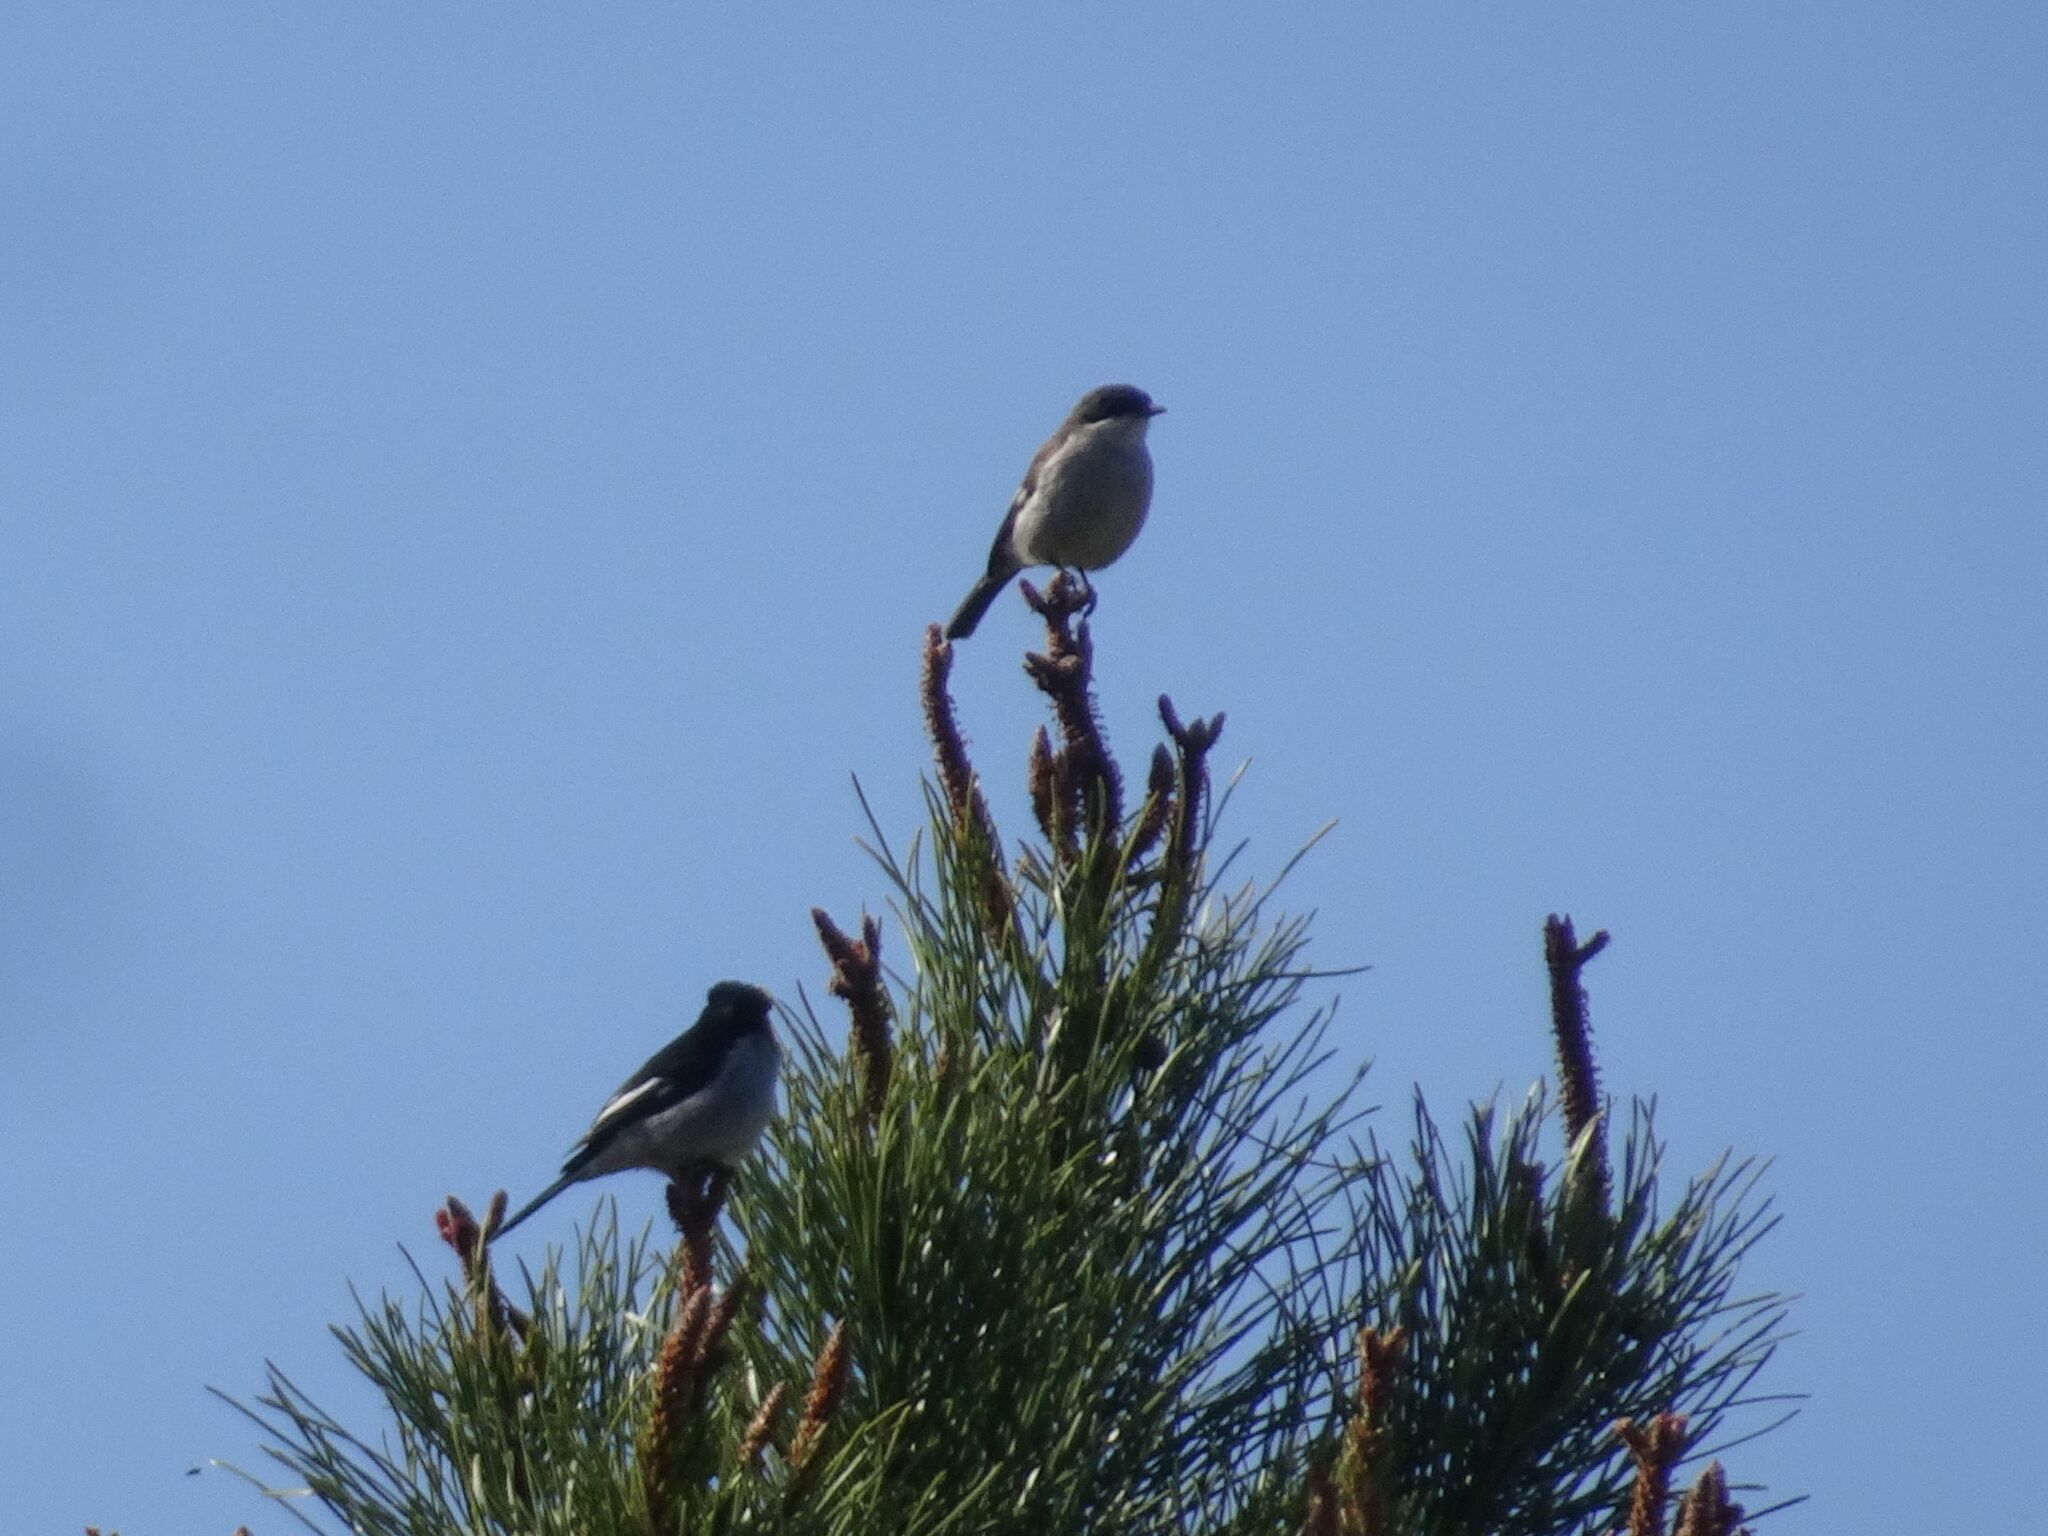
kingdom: Animalia
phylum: Chordata
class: Aves
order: Passeriformes
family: Muscicapidae
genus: Sigelus
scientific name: Sigelus silens
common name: Fiscal flycatcher
